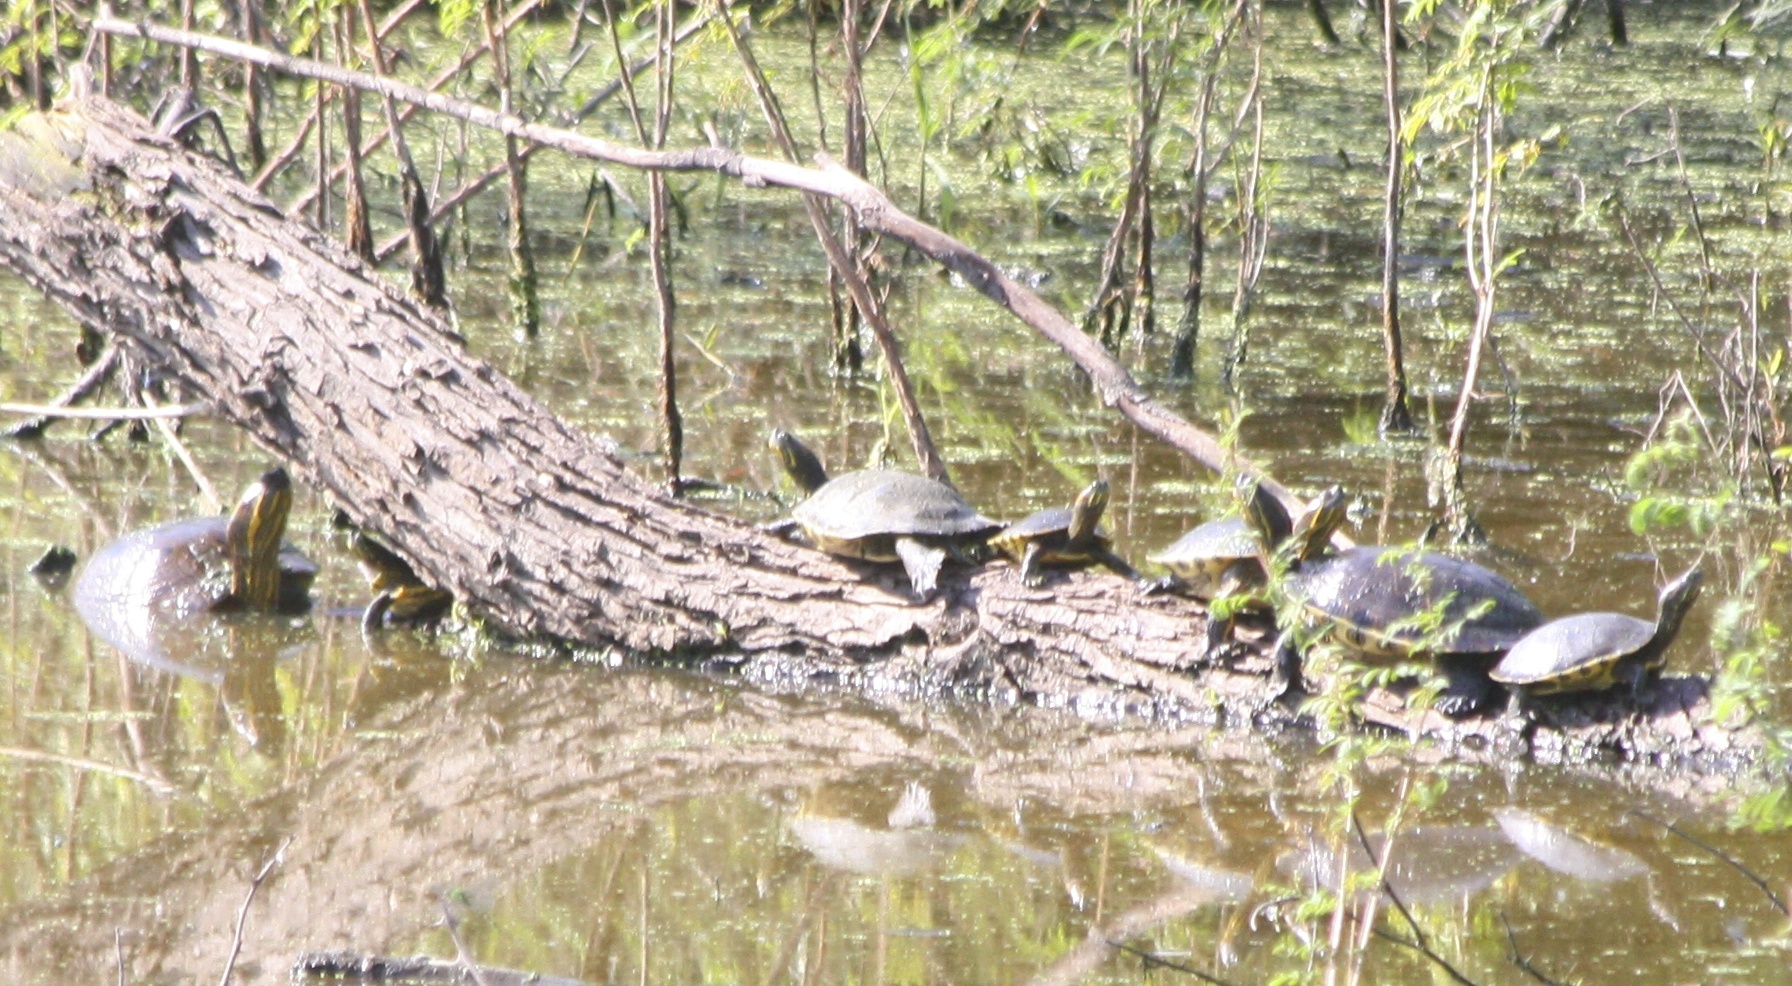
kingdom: Animalia
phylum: Chordata
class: Testudines
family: Emydidae
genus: Trachemys
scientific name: Trachemys ornata
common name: Ornate slider
